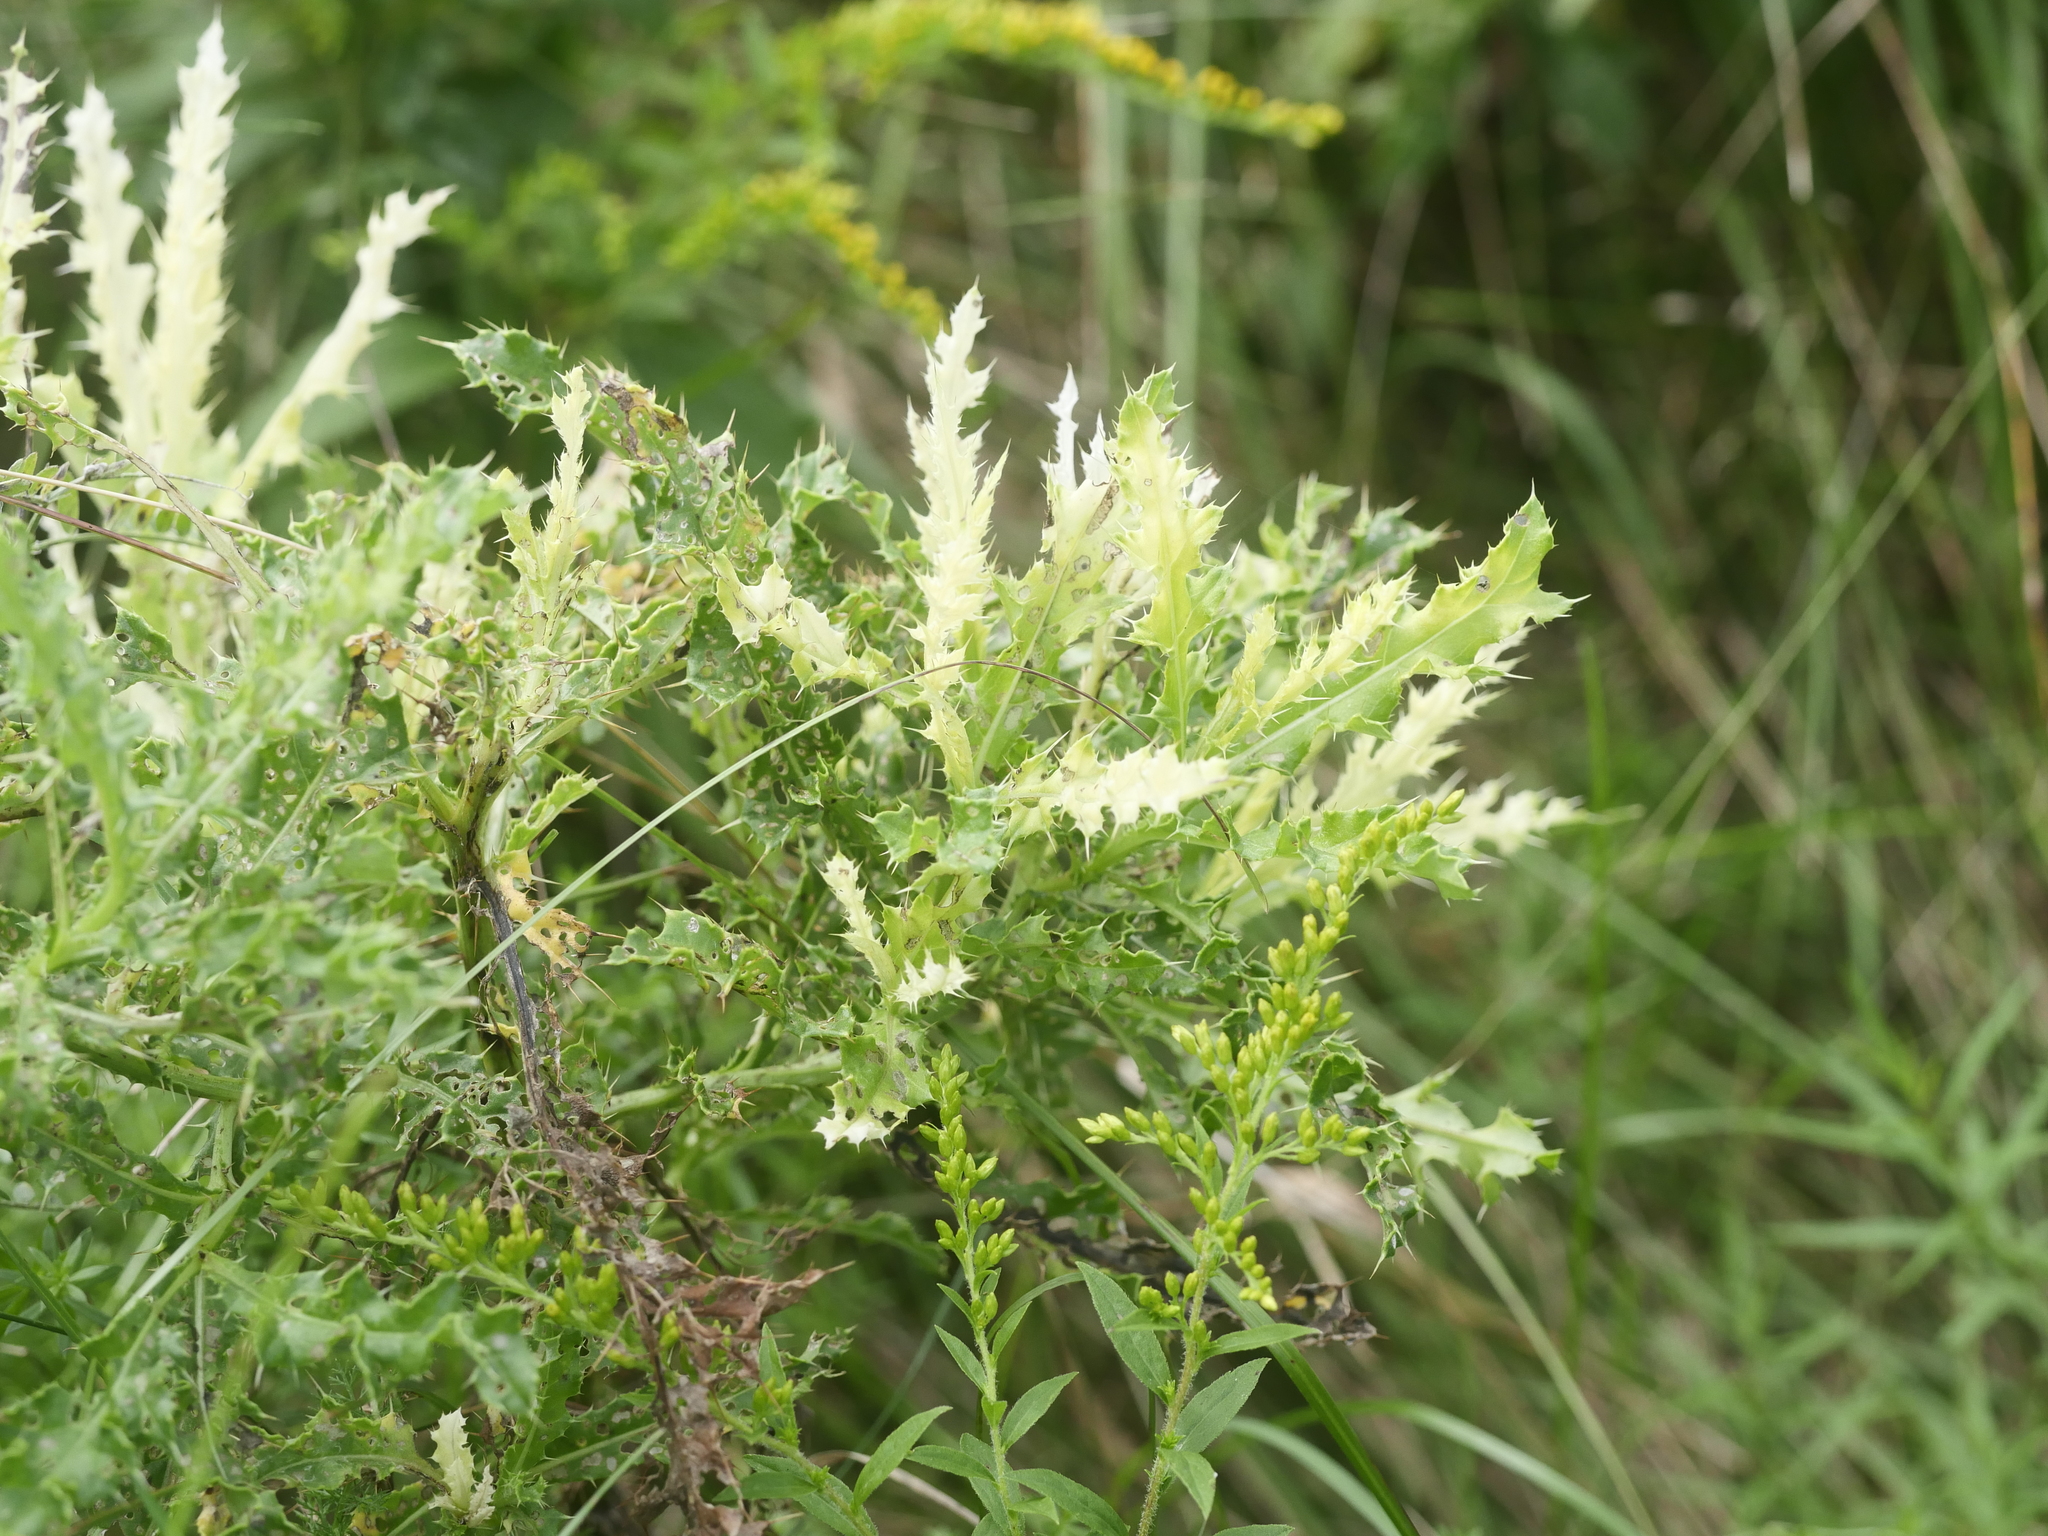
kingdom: Plantae
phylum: Tracheophyta
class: Magnoliopsida
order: Asterales
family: Asteraceae
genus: Cirsium
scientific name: Cirsium arvense
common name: Creeping thistle
